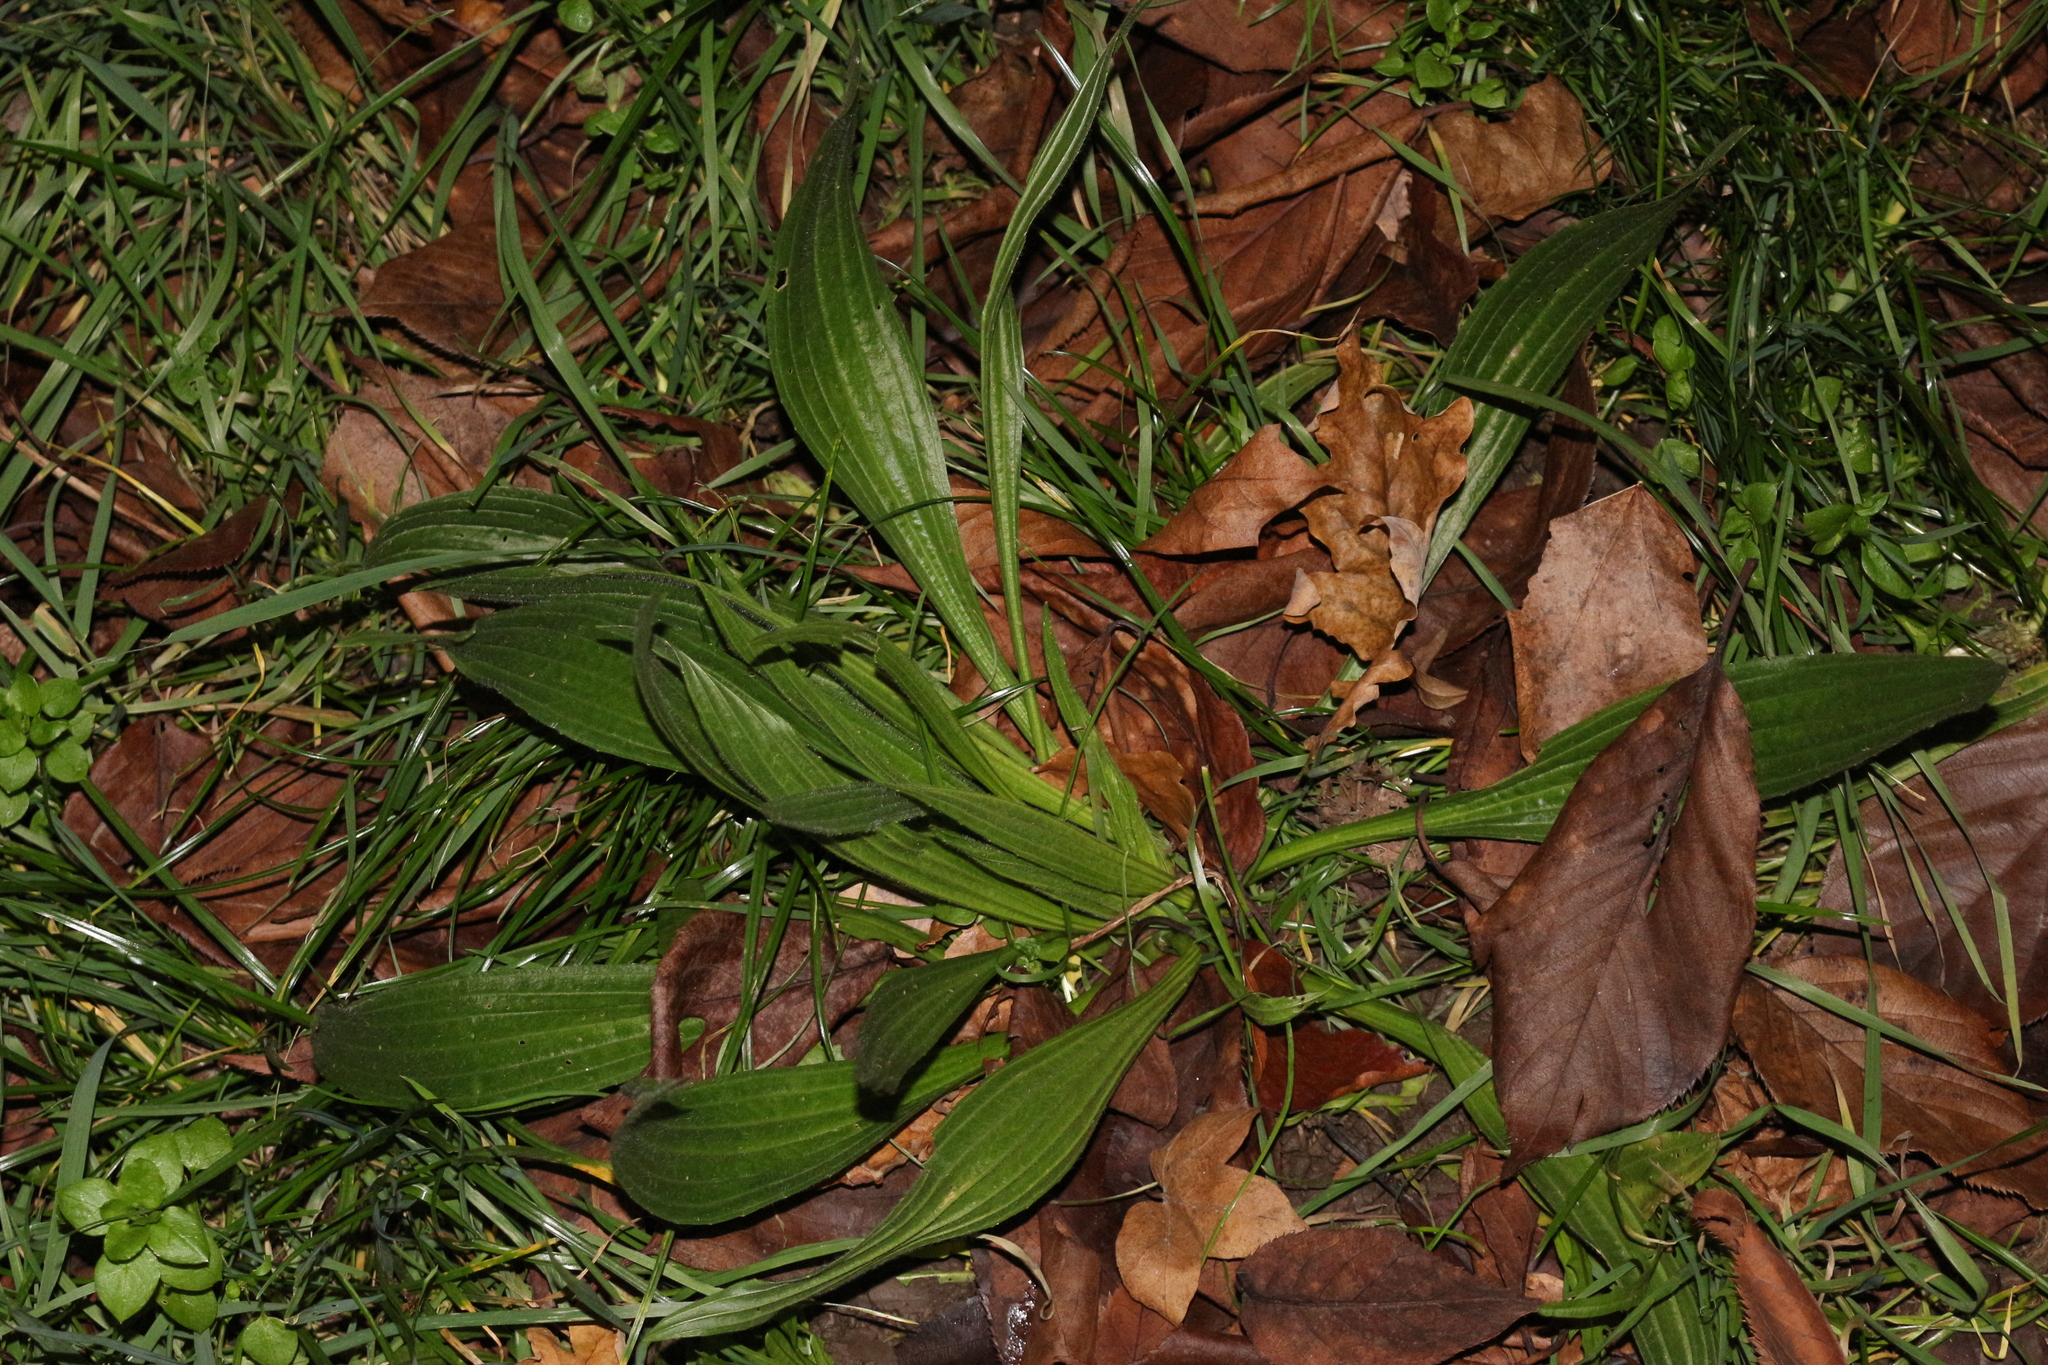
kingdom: Plantae
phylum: Tracheophyta
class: Magnoliopsida
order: Lamiales
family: Plantaginaceae
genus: Plantago
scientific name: Plantago lanceolata
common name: Ribwort plantain
